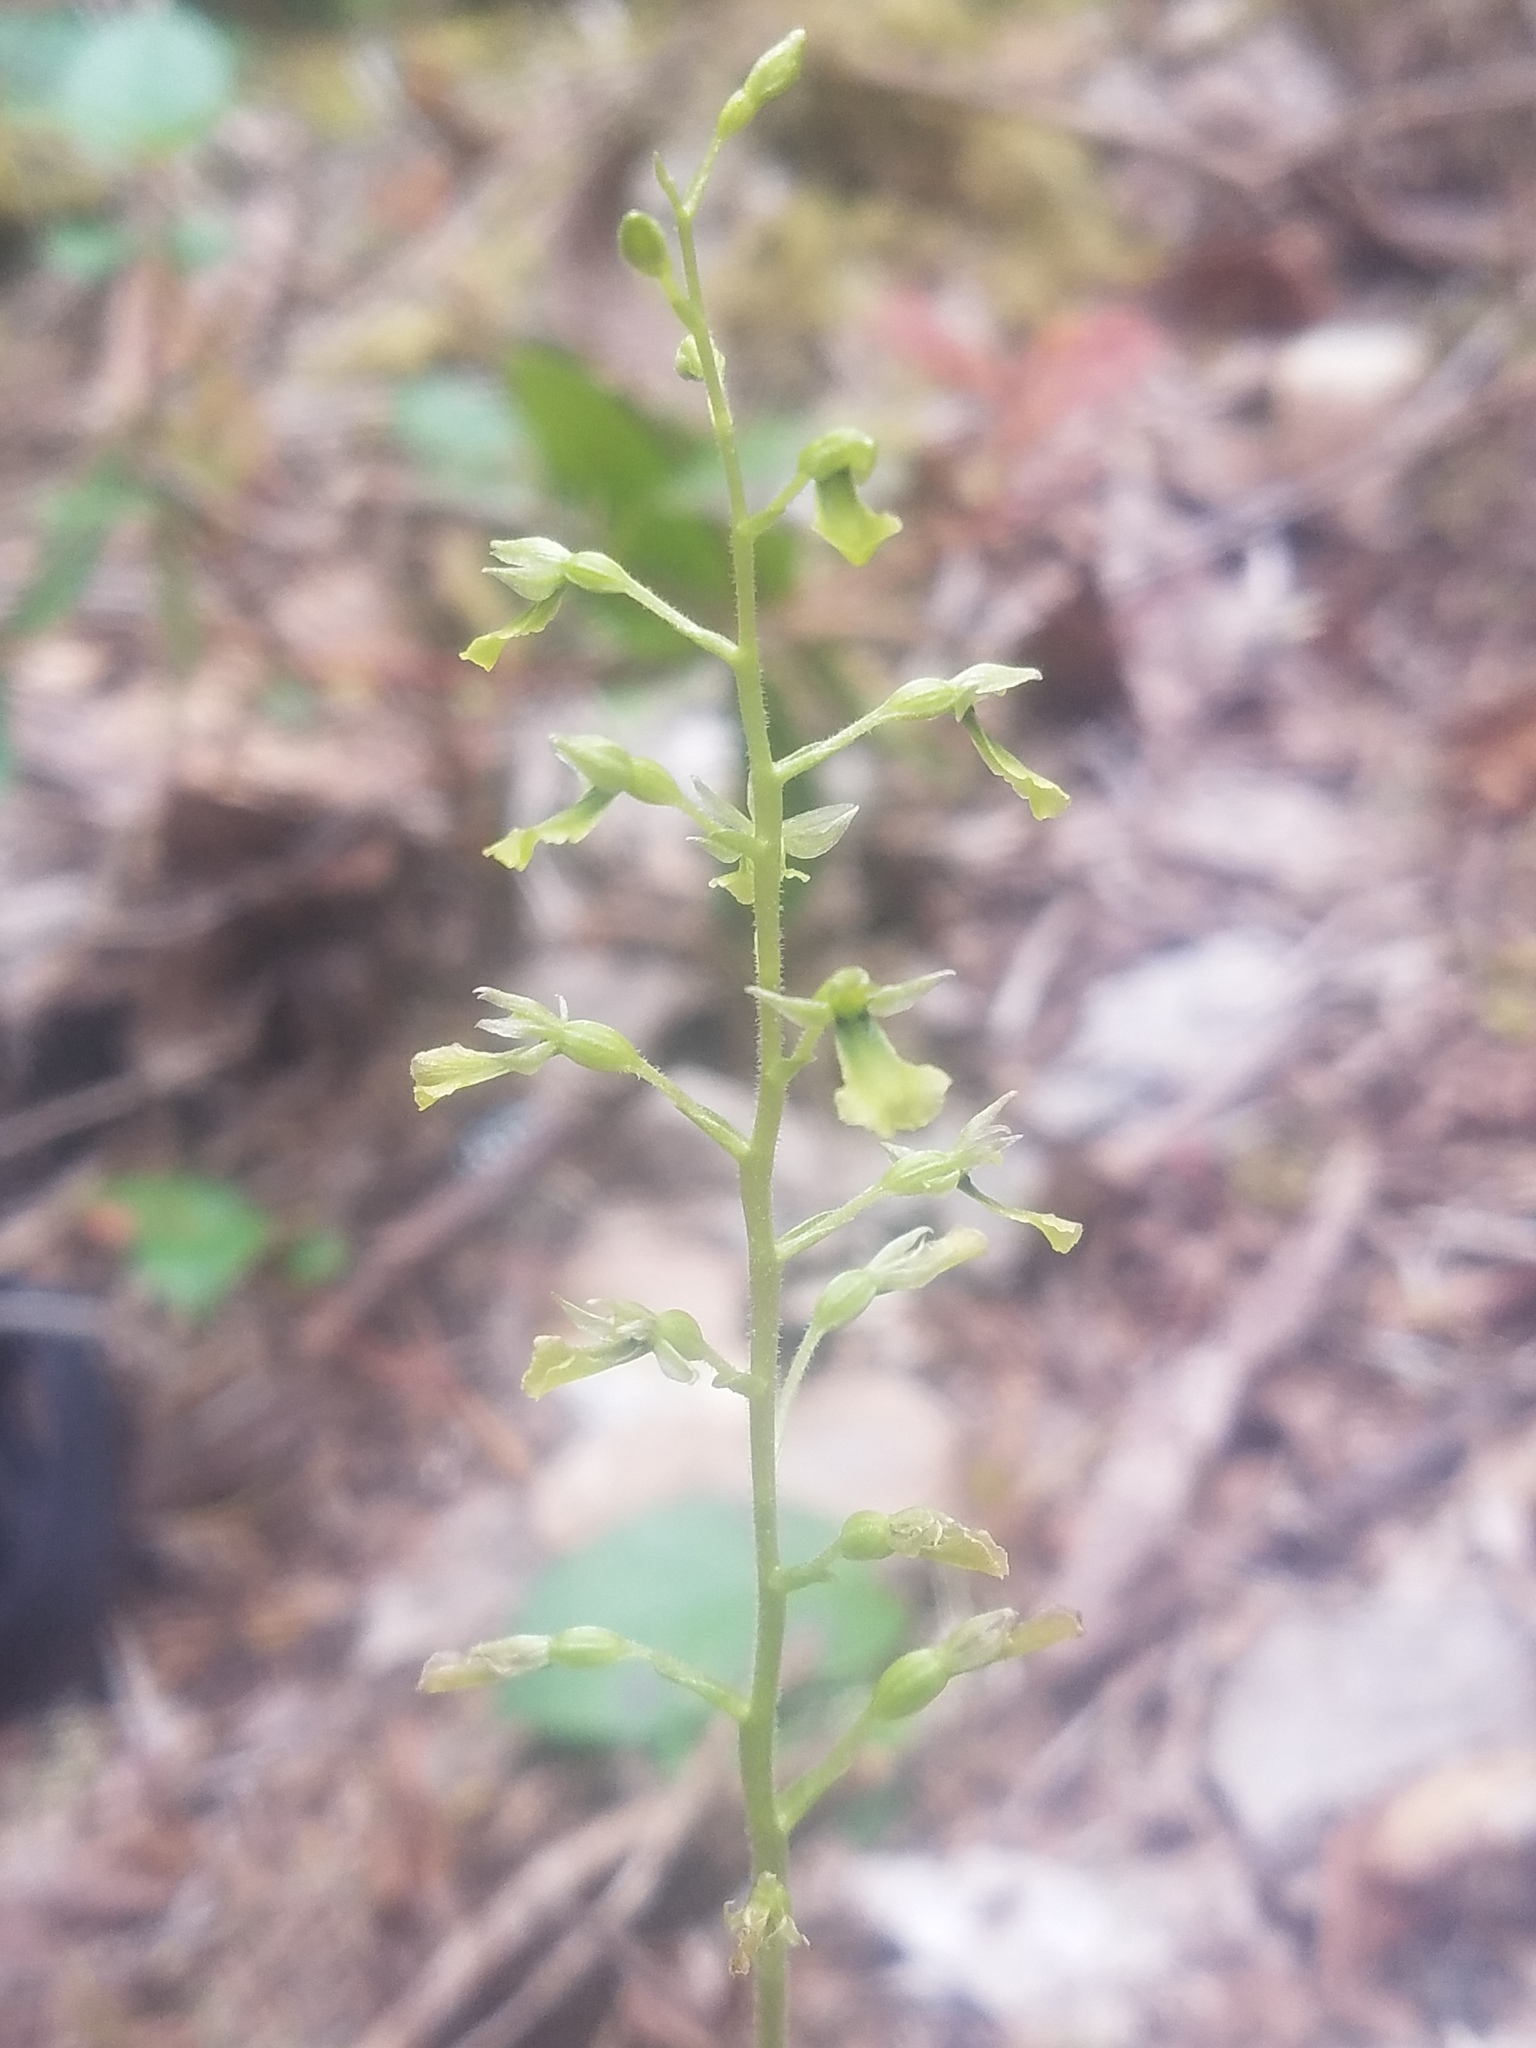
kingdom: Plantae
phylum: Tracheophyta
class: Liliopsida
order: Asparagales
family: Orchidaceae
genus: Neottia
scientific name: Neottia banksiana
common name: Northwestern twayblade
